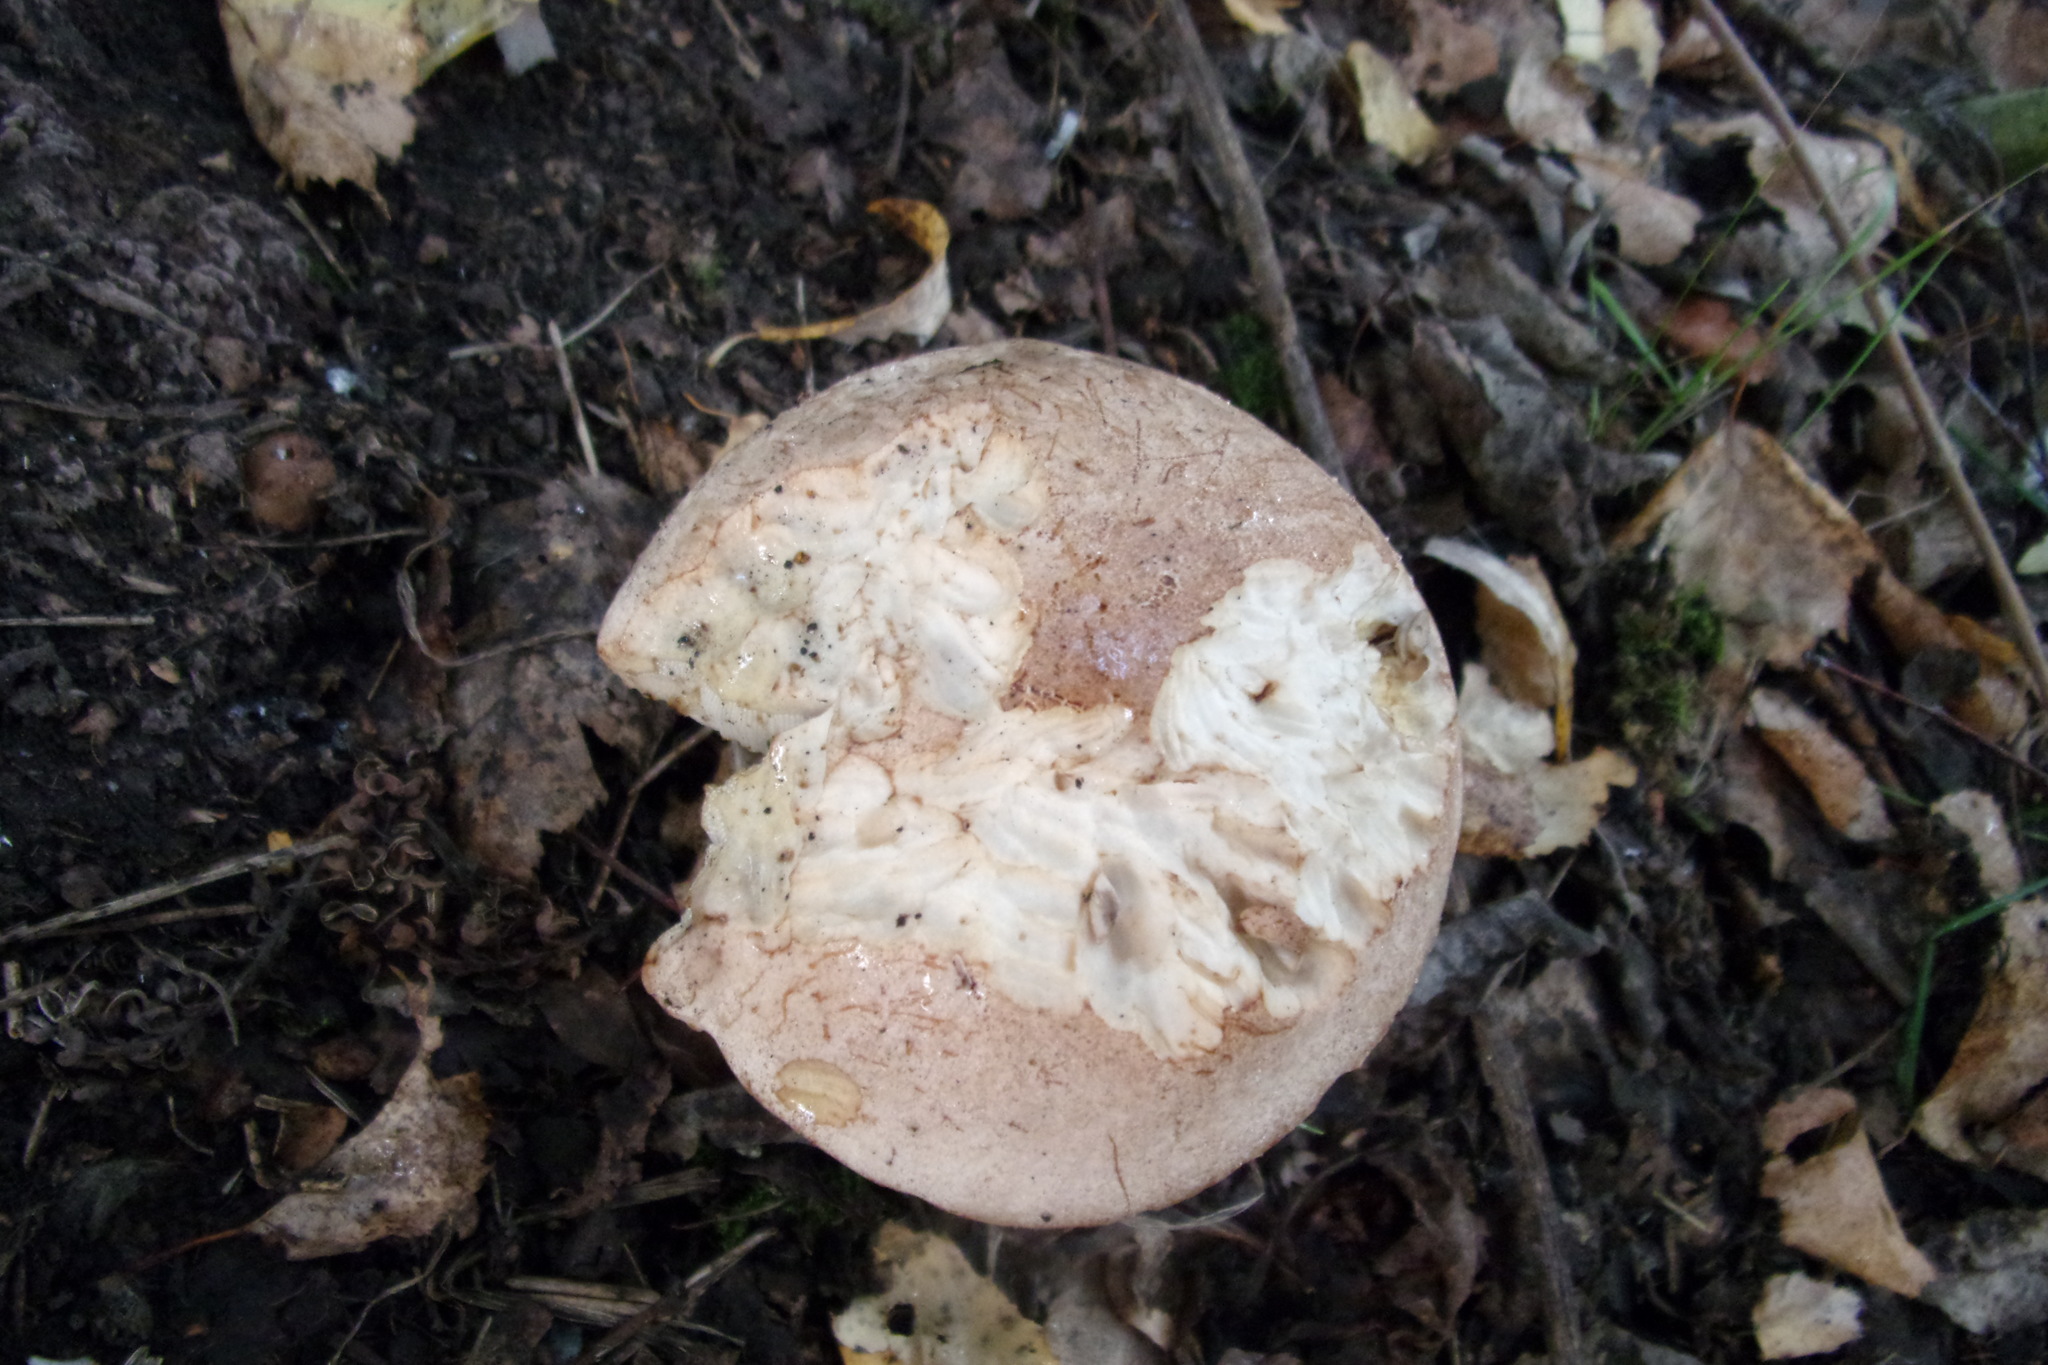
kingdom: Fungi
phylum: Basidiomycota
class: Agaricomycetes
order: Boletales
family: Boletaceae
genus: Leccinum
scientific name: Leccinum scabrum
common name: Blushing bolete
